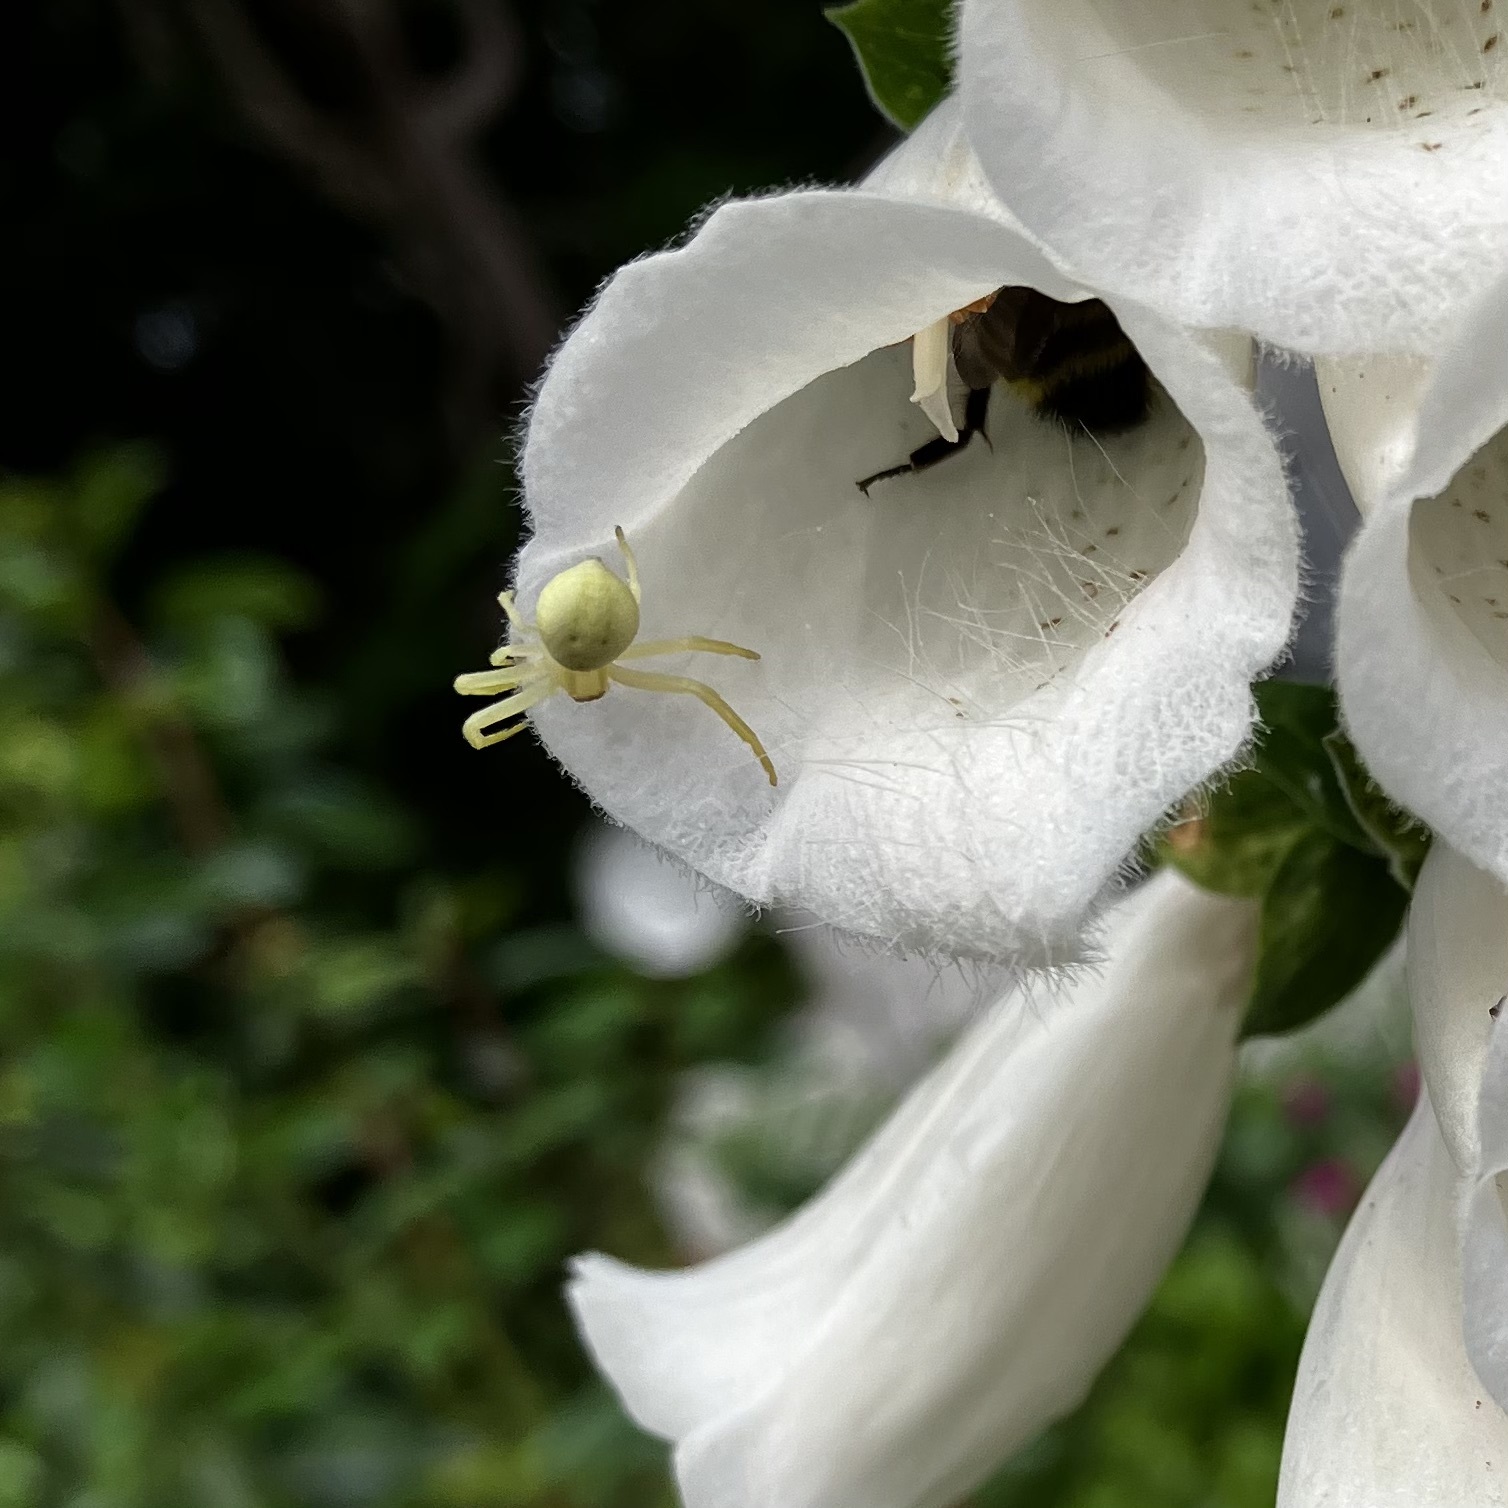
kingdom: Animalia
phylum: Arthropoda
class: Arachnida
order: Araneae
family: Thomisidae
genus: Misumena
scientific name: Misumena vatia
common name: Goldenrod crab spider
